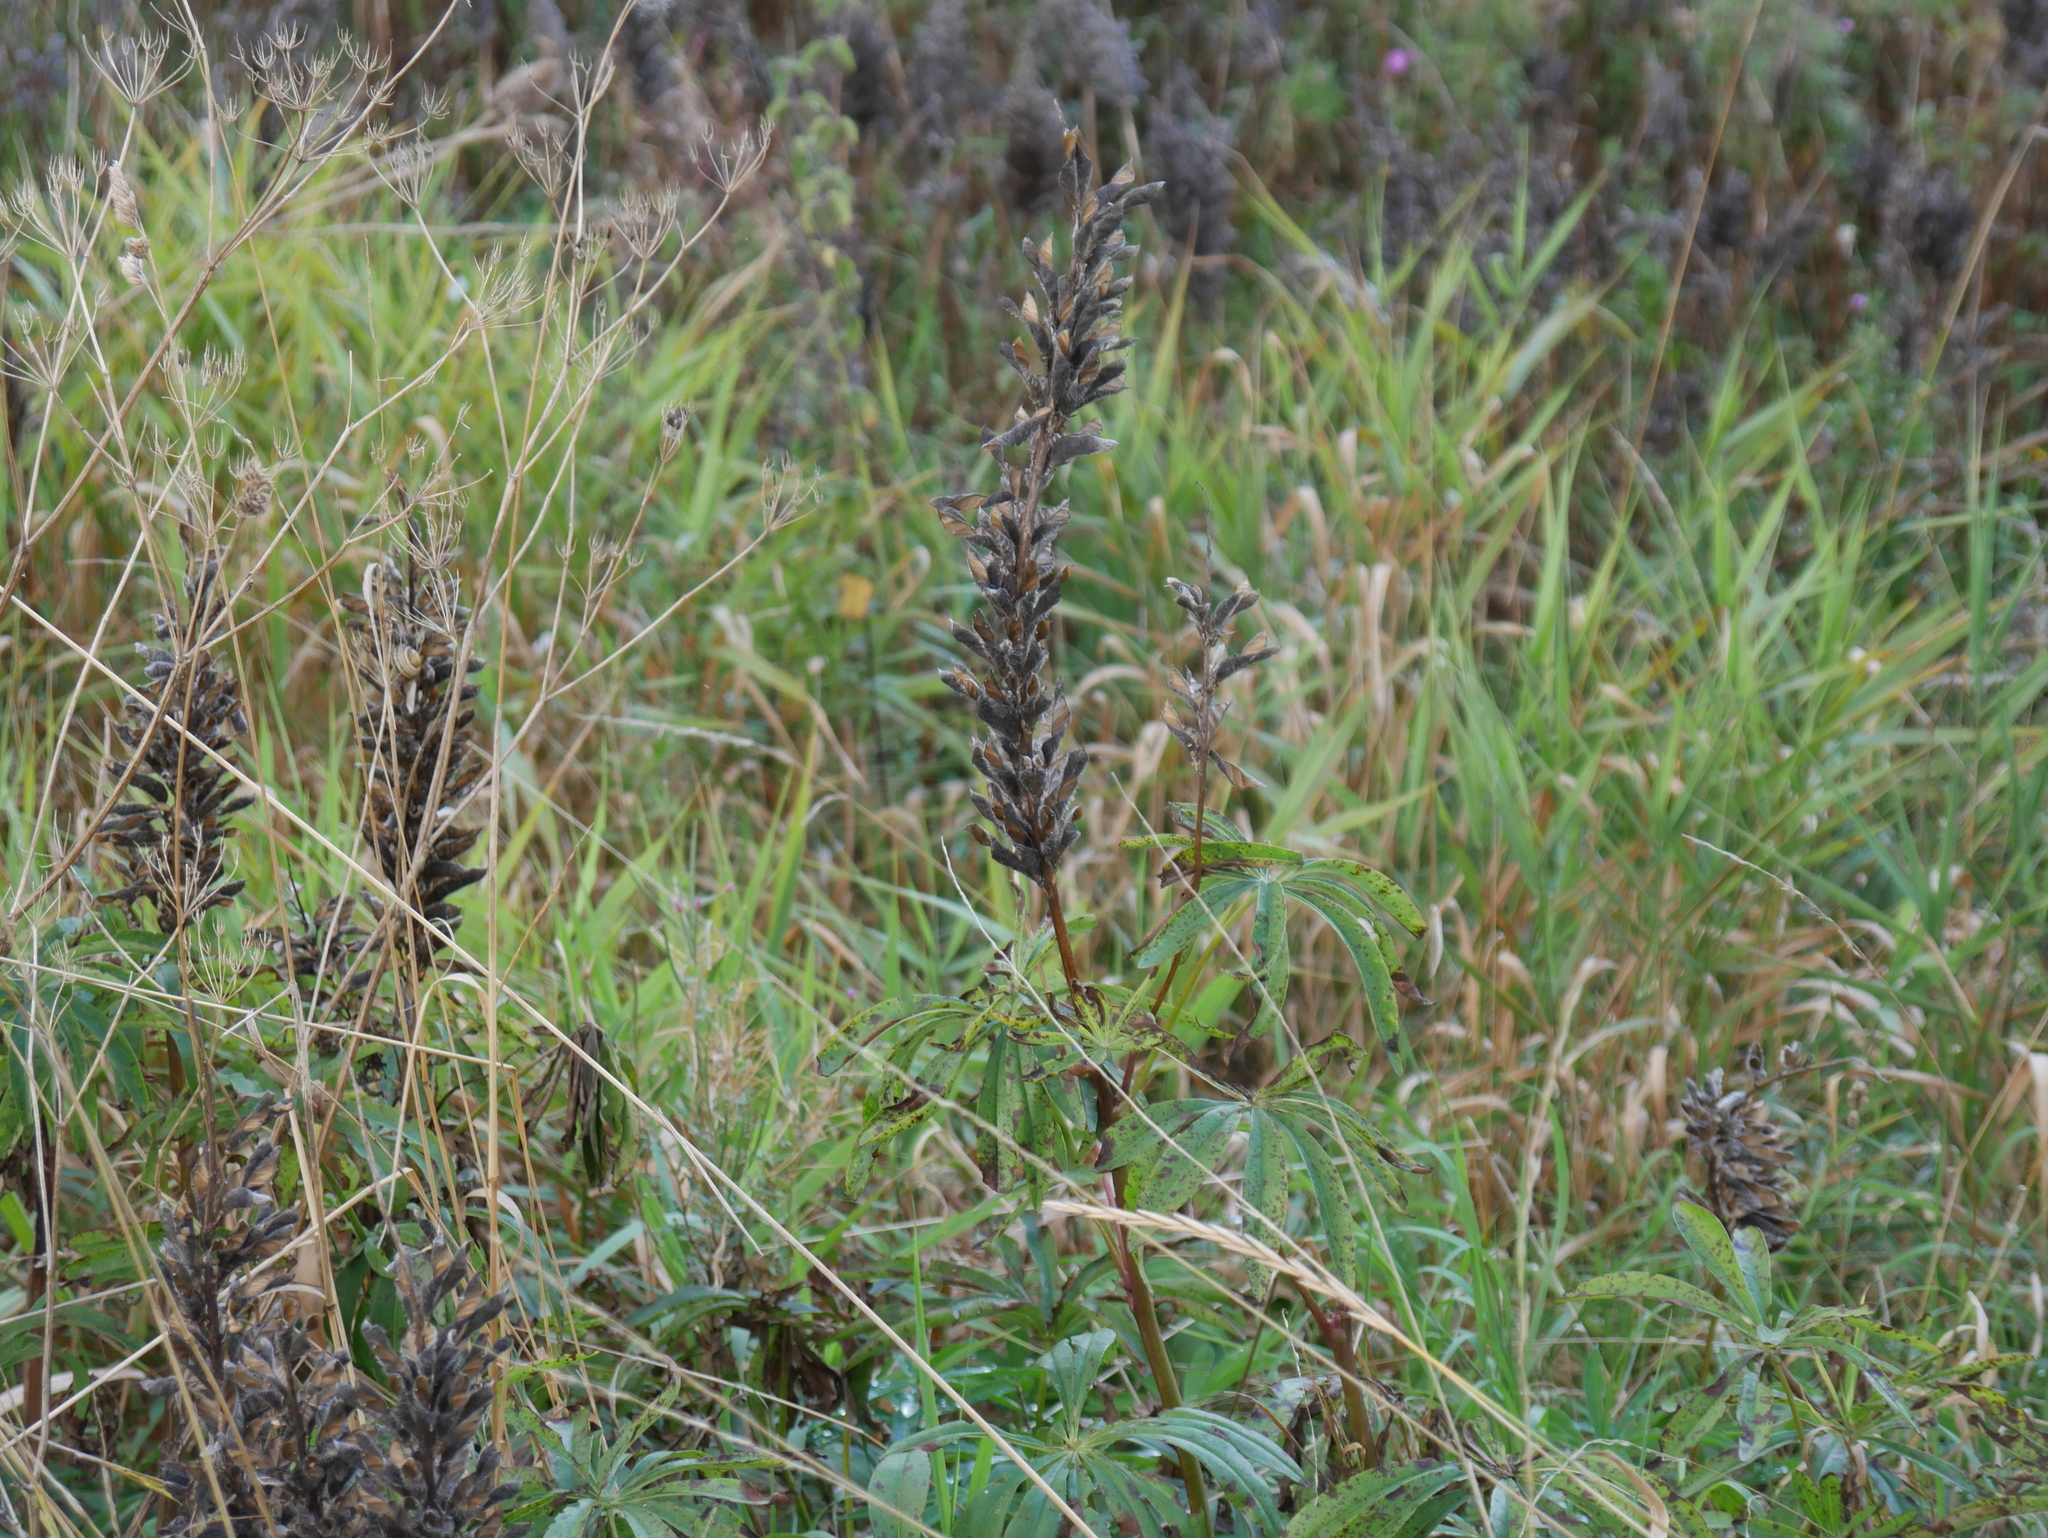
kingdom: Plantae
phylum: Tracheophyta
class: Magnoliopsida
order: Fabales
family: Fabaceae
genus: Lupinus
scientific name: Lupinus polyphyllus
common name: Garden lupin
